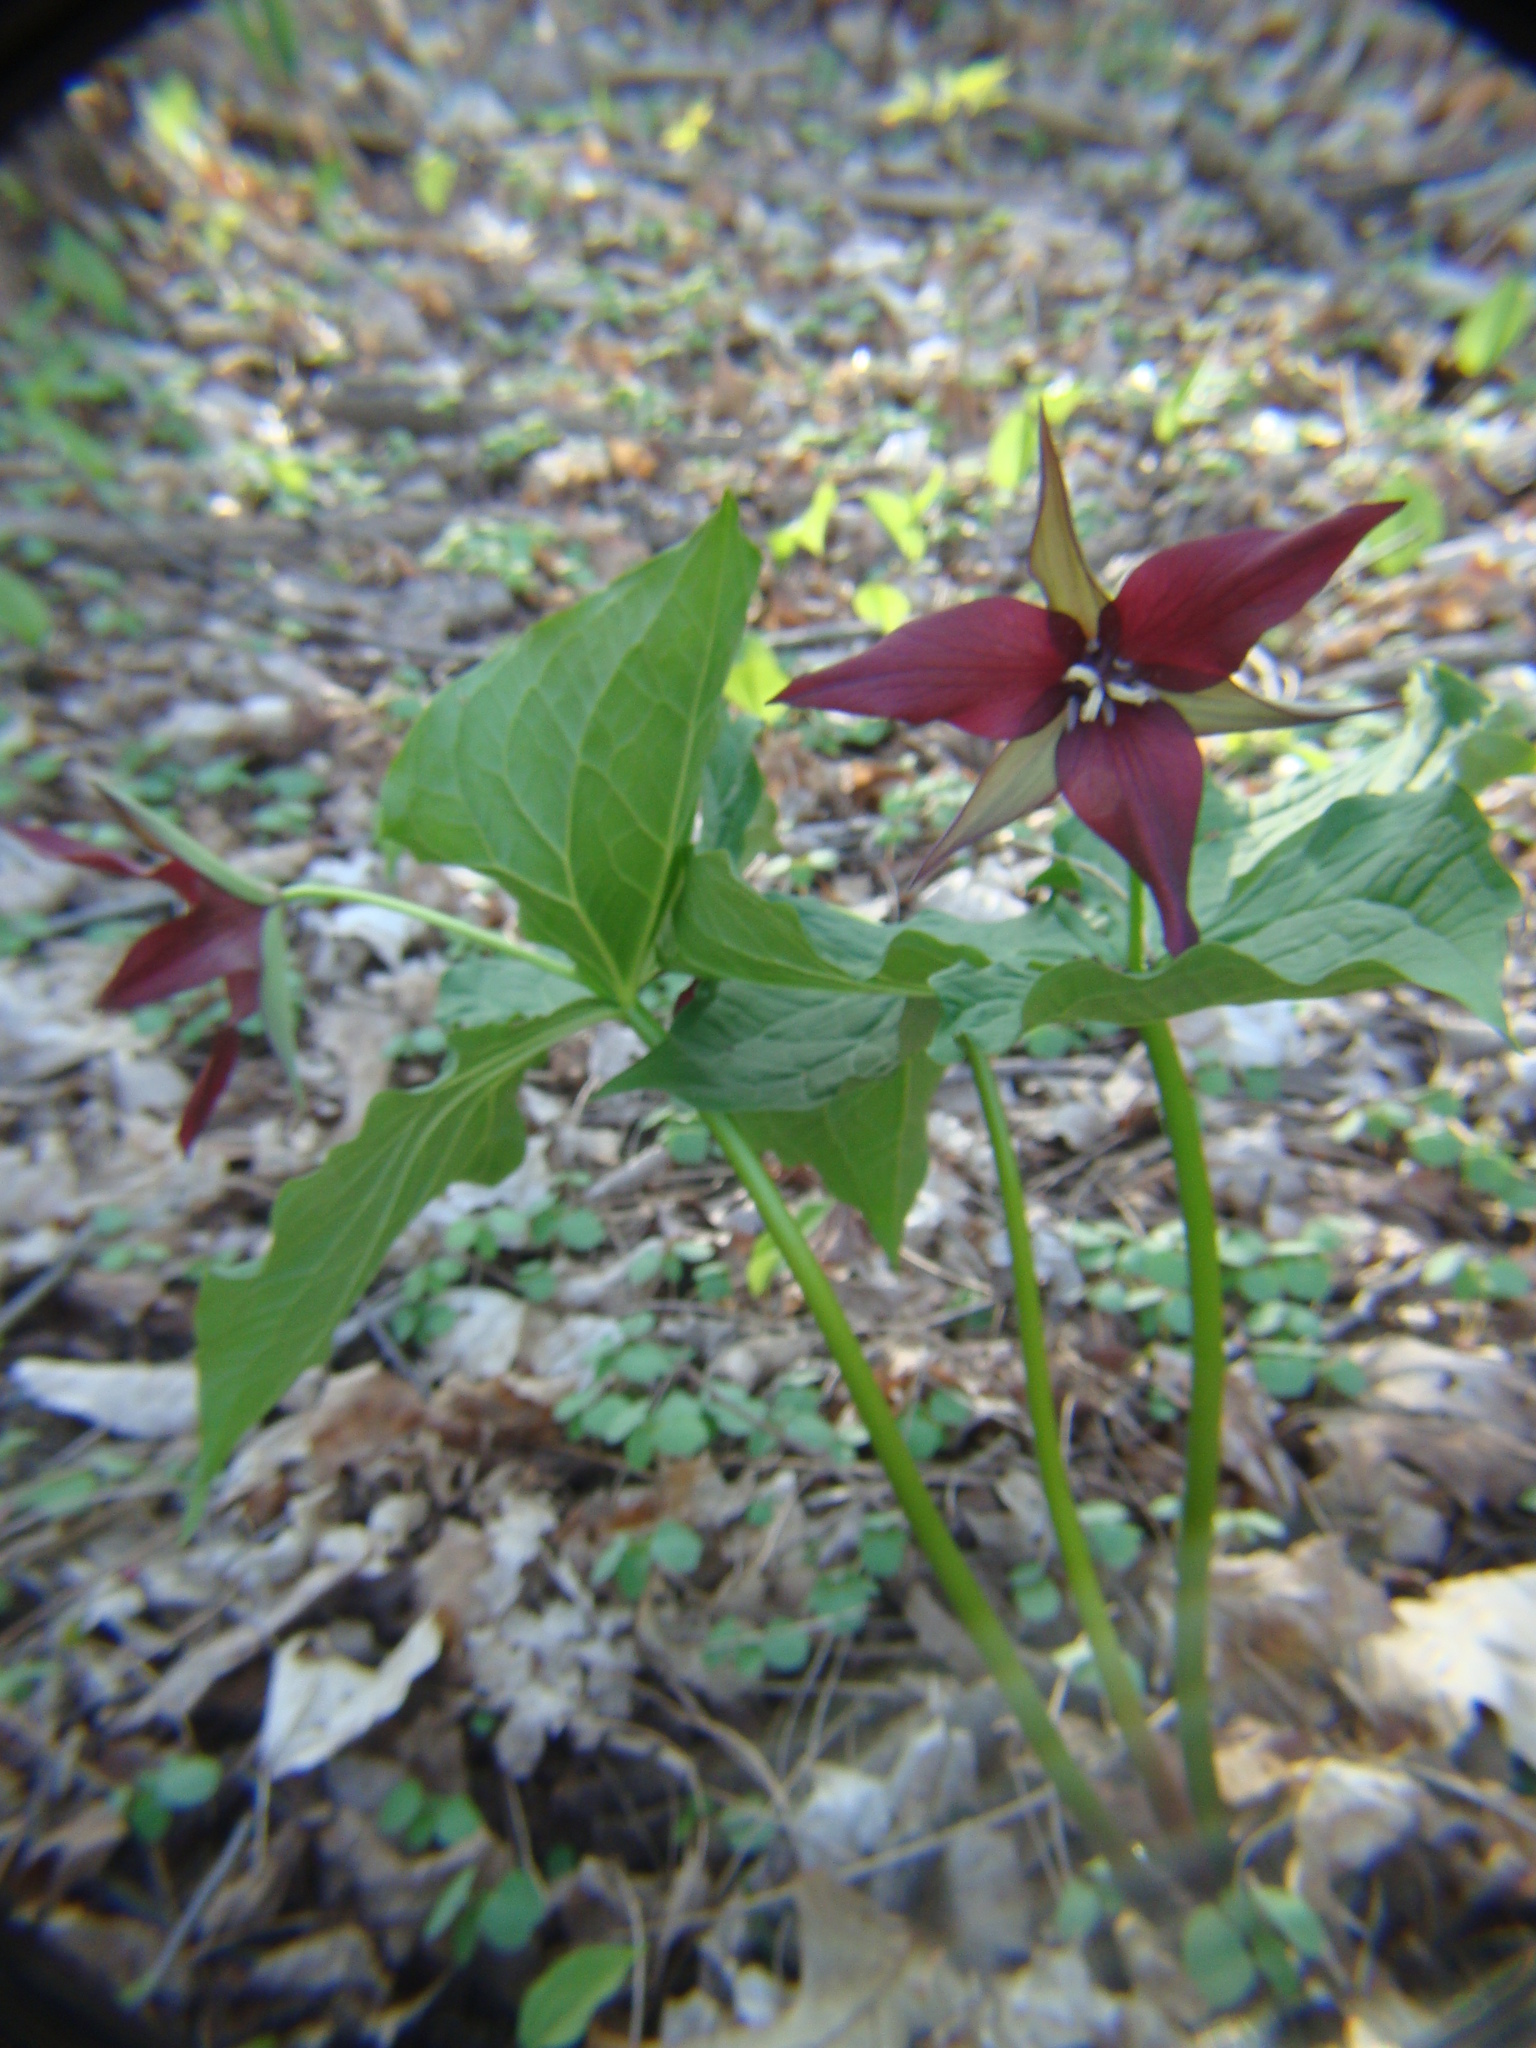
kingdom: Plantae
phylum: Tracheophyta
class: Liliopsida
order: Liliales
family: Melanthiaceae
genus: Trillium
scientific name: Trillium erectum
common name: Purple trillium
